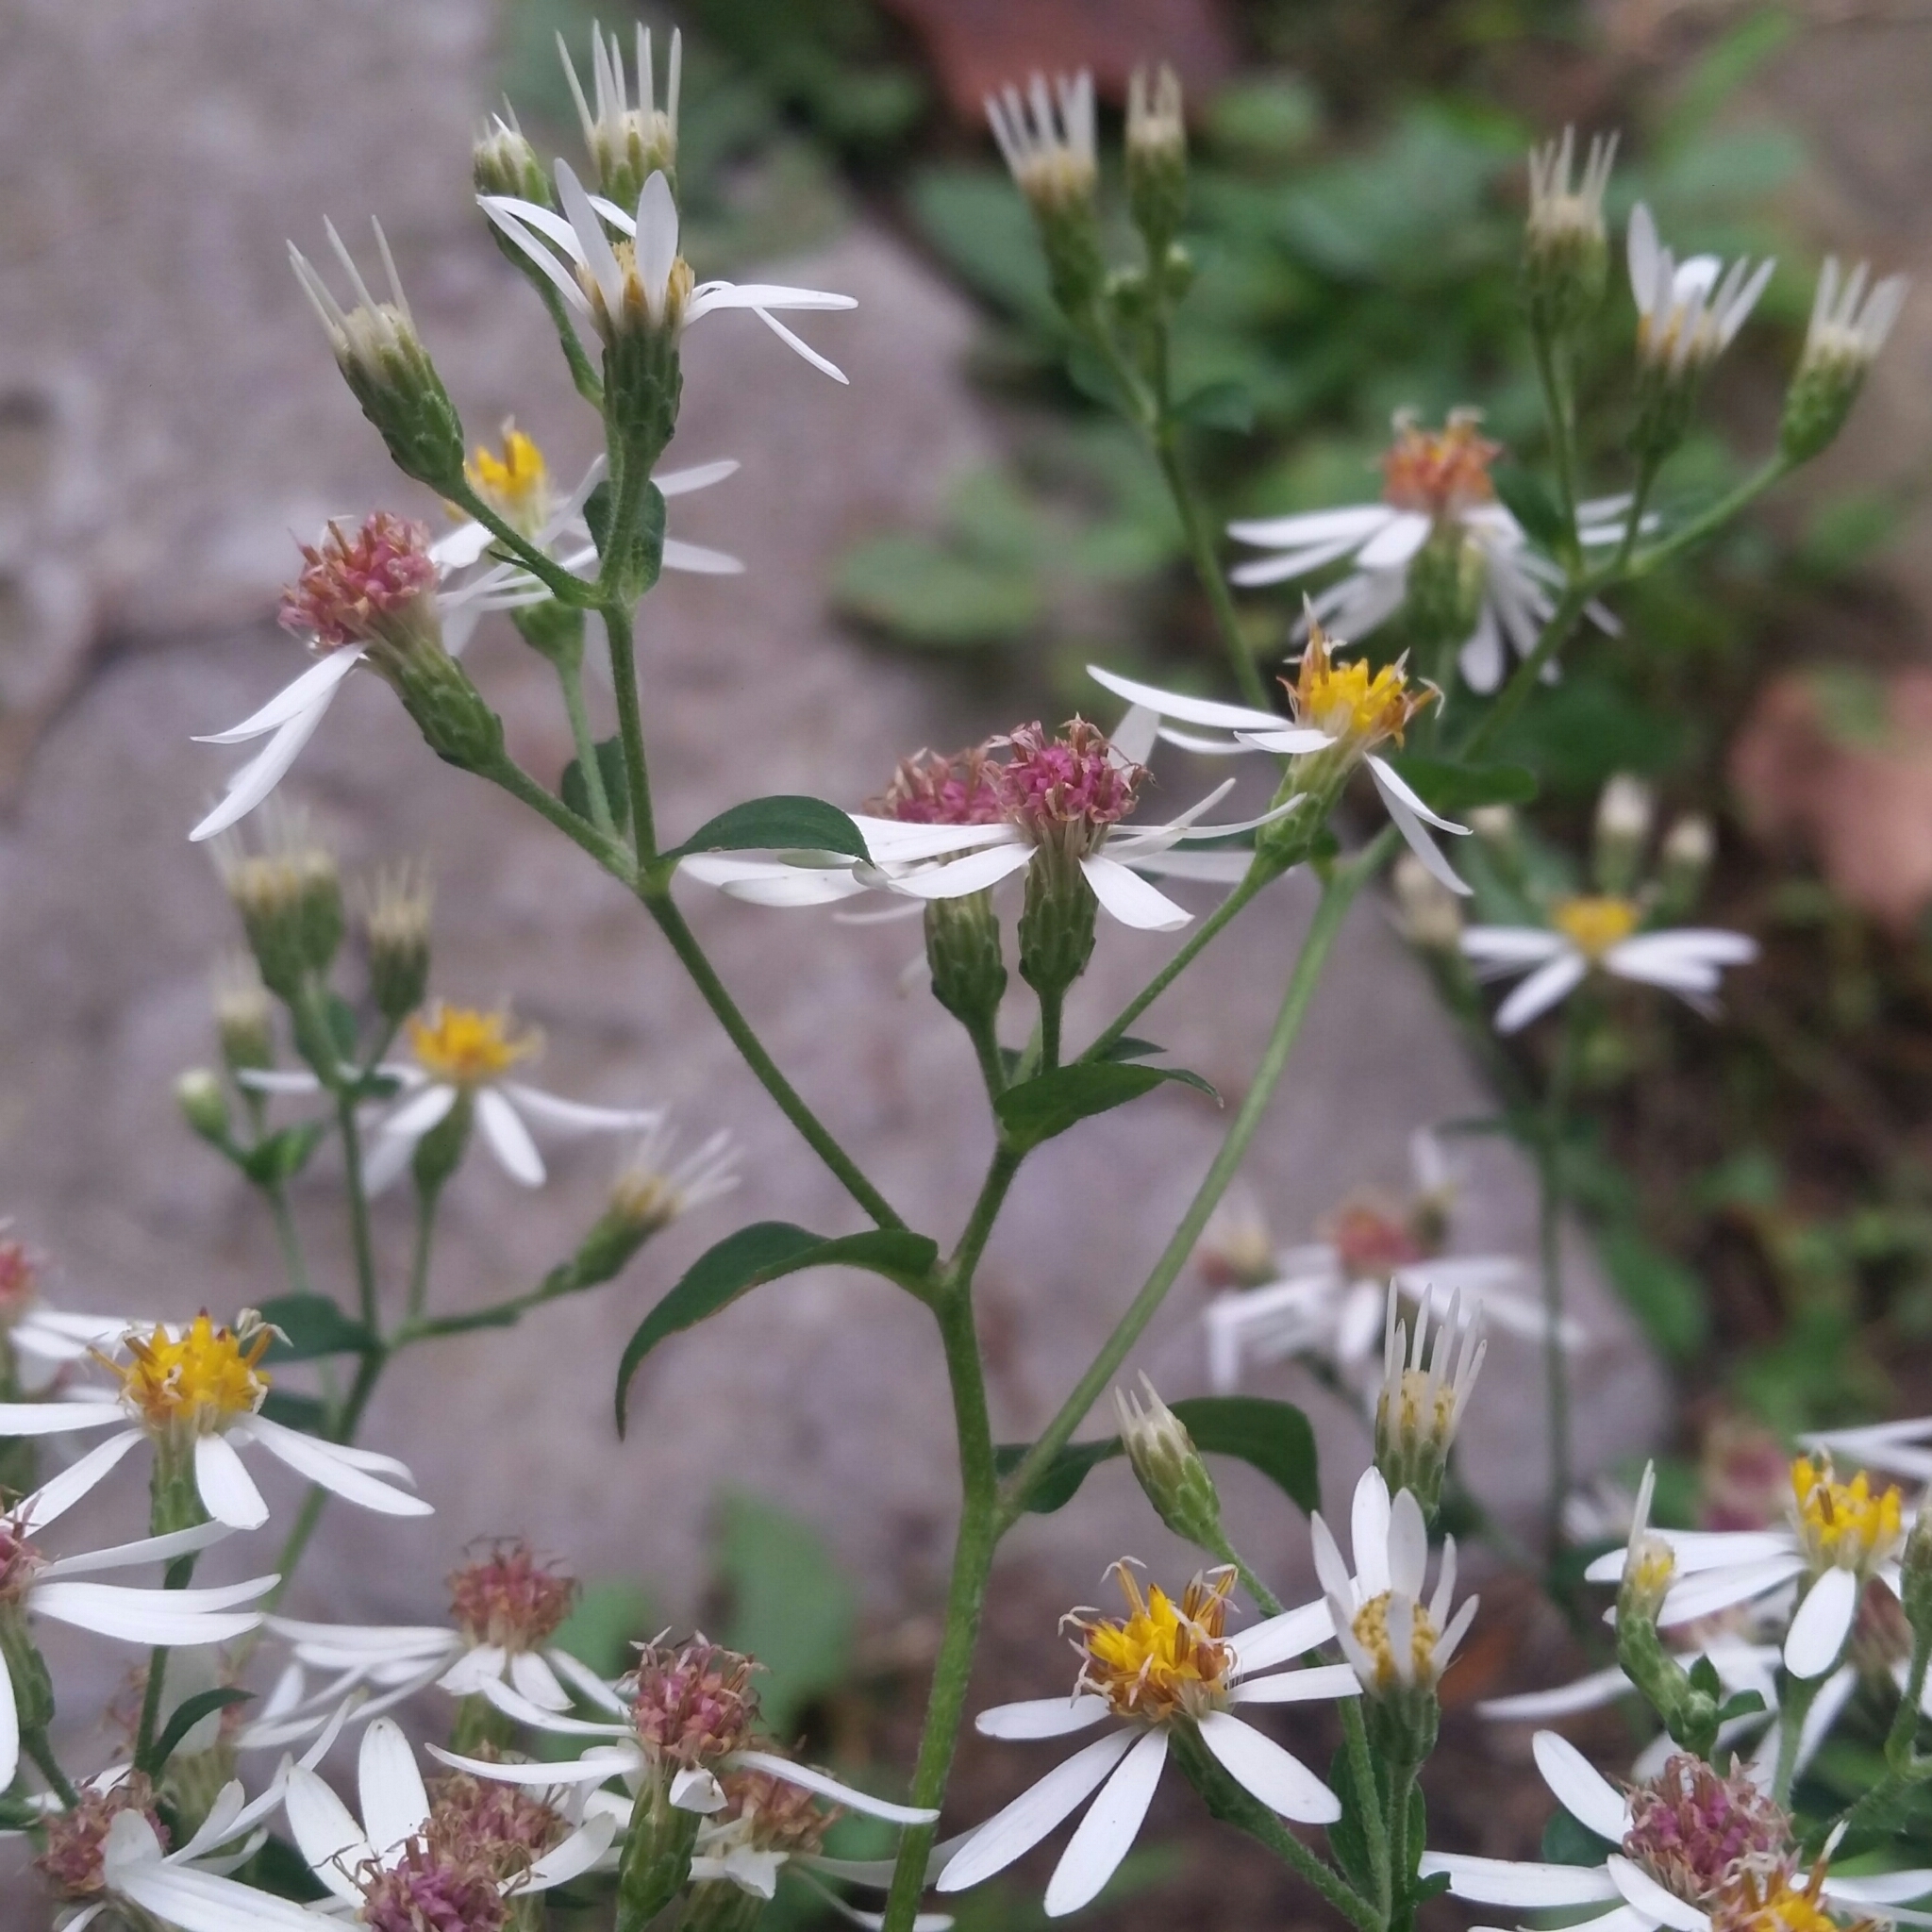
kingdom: Plantae
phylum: Tracheophyta
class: Magnoliopsida
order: Asterales
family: Asteraceae
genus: Eurybia
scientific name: Eurybia divaricata
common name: White wood aster
